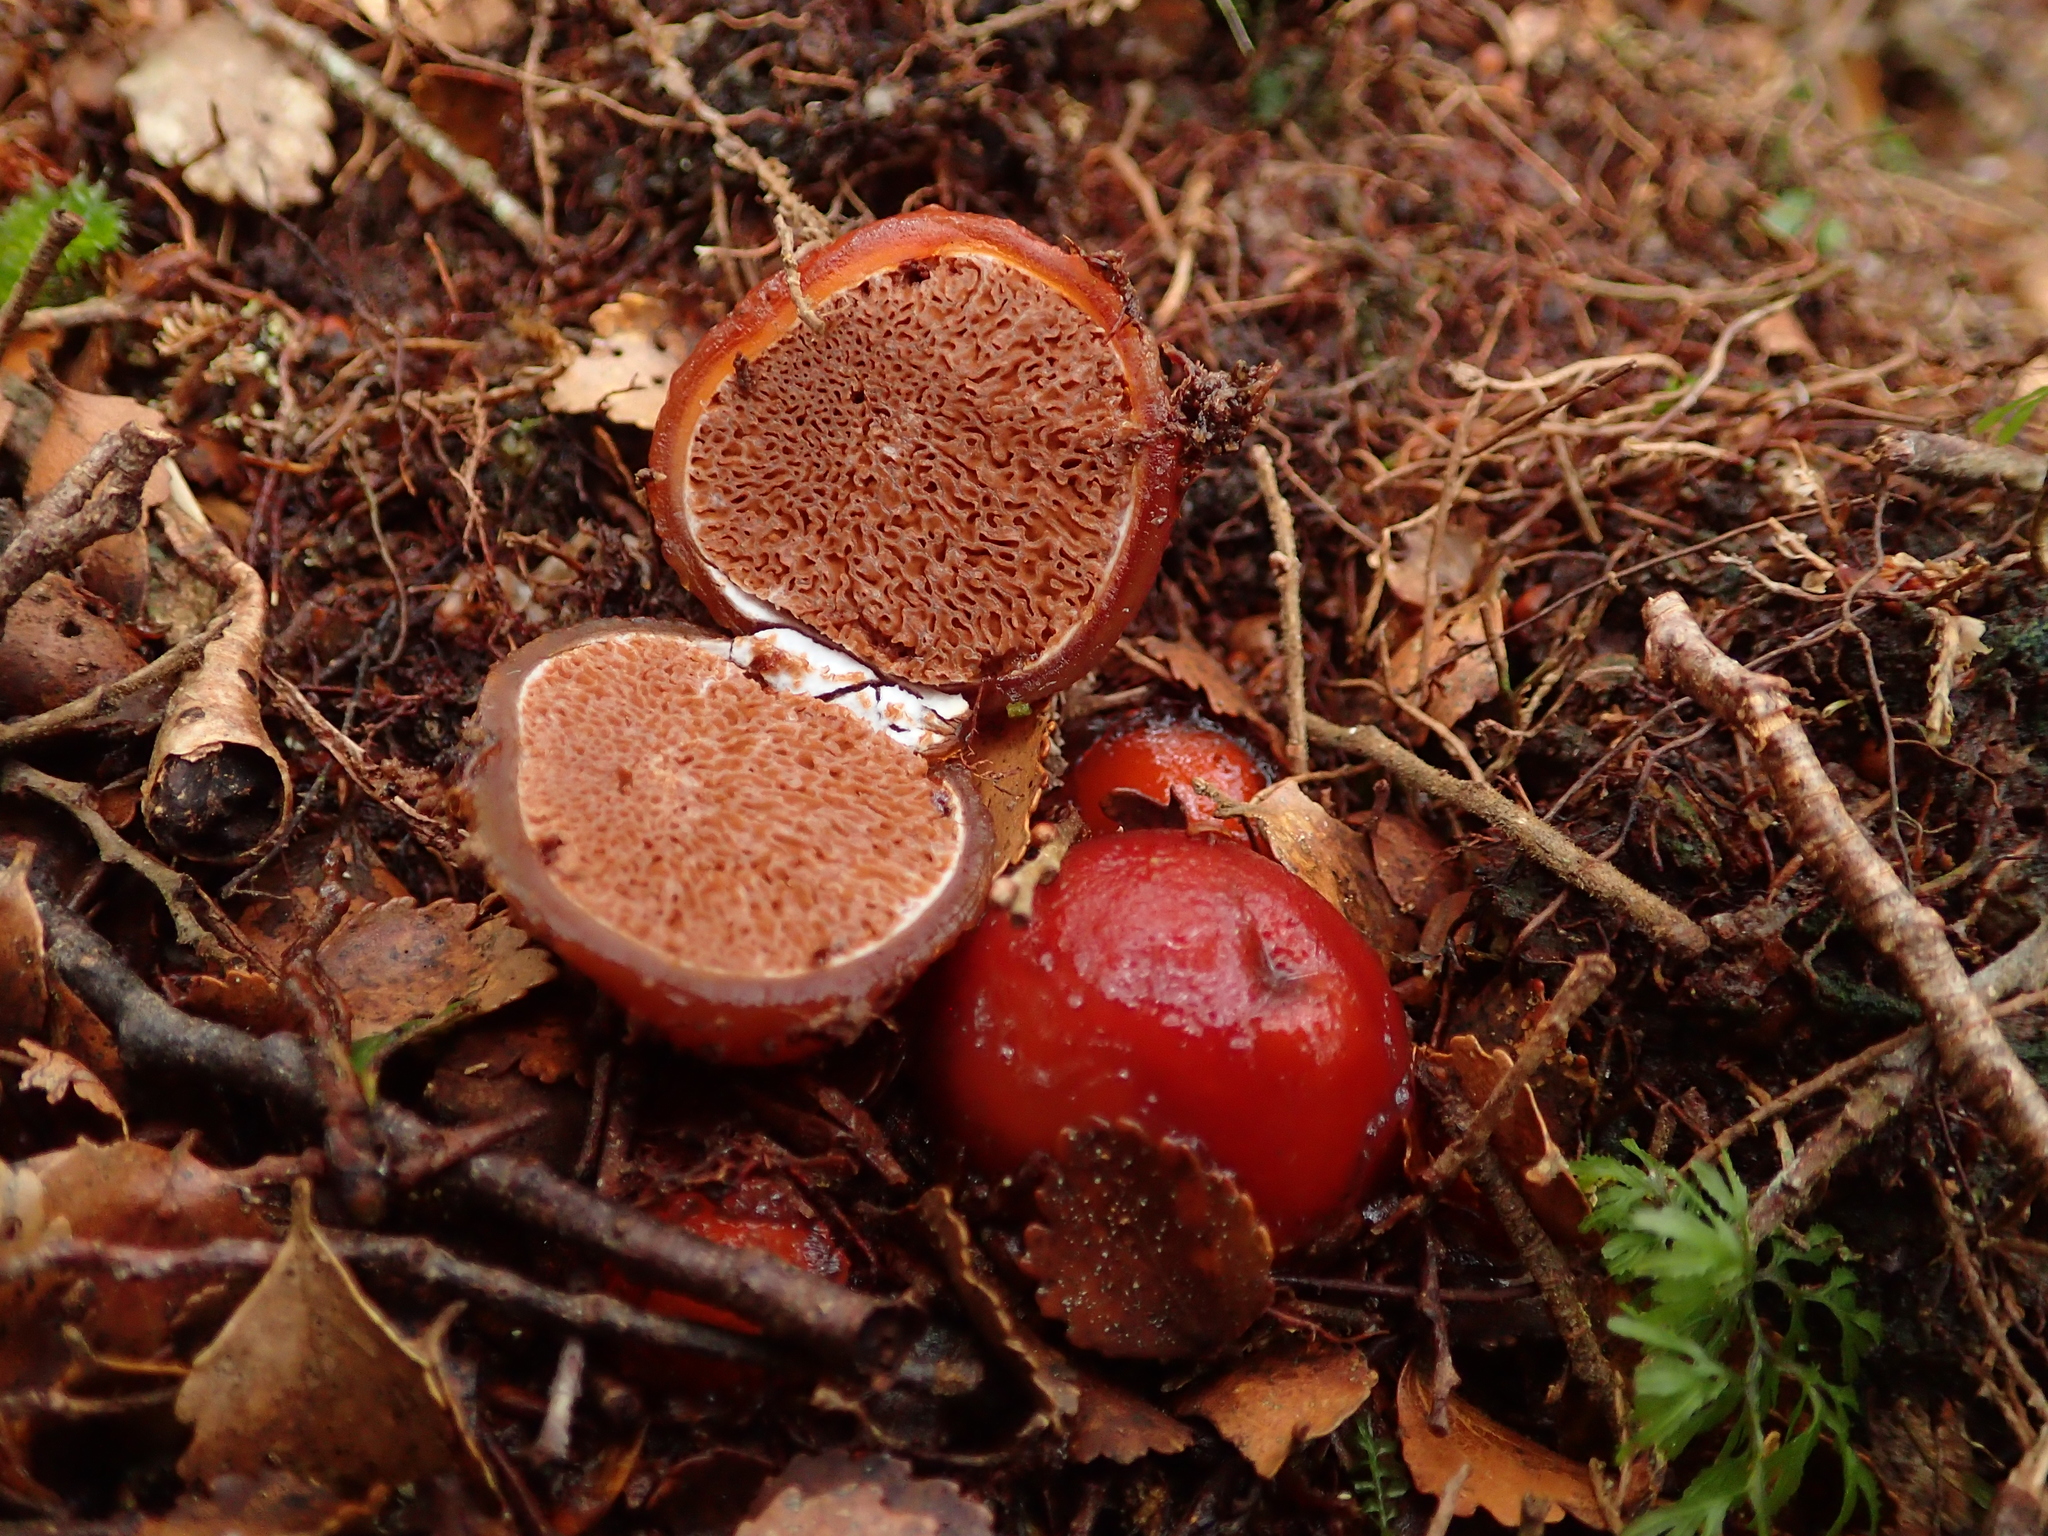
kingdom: Fungi
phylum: Basidiomycota
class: Agaricomycetes
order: Agaricales
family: Cortinariaceae
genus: Cortinarius
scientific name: Cortinarius beeverorum
